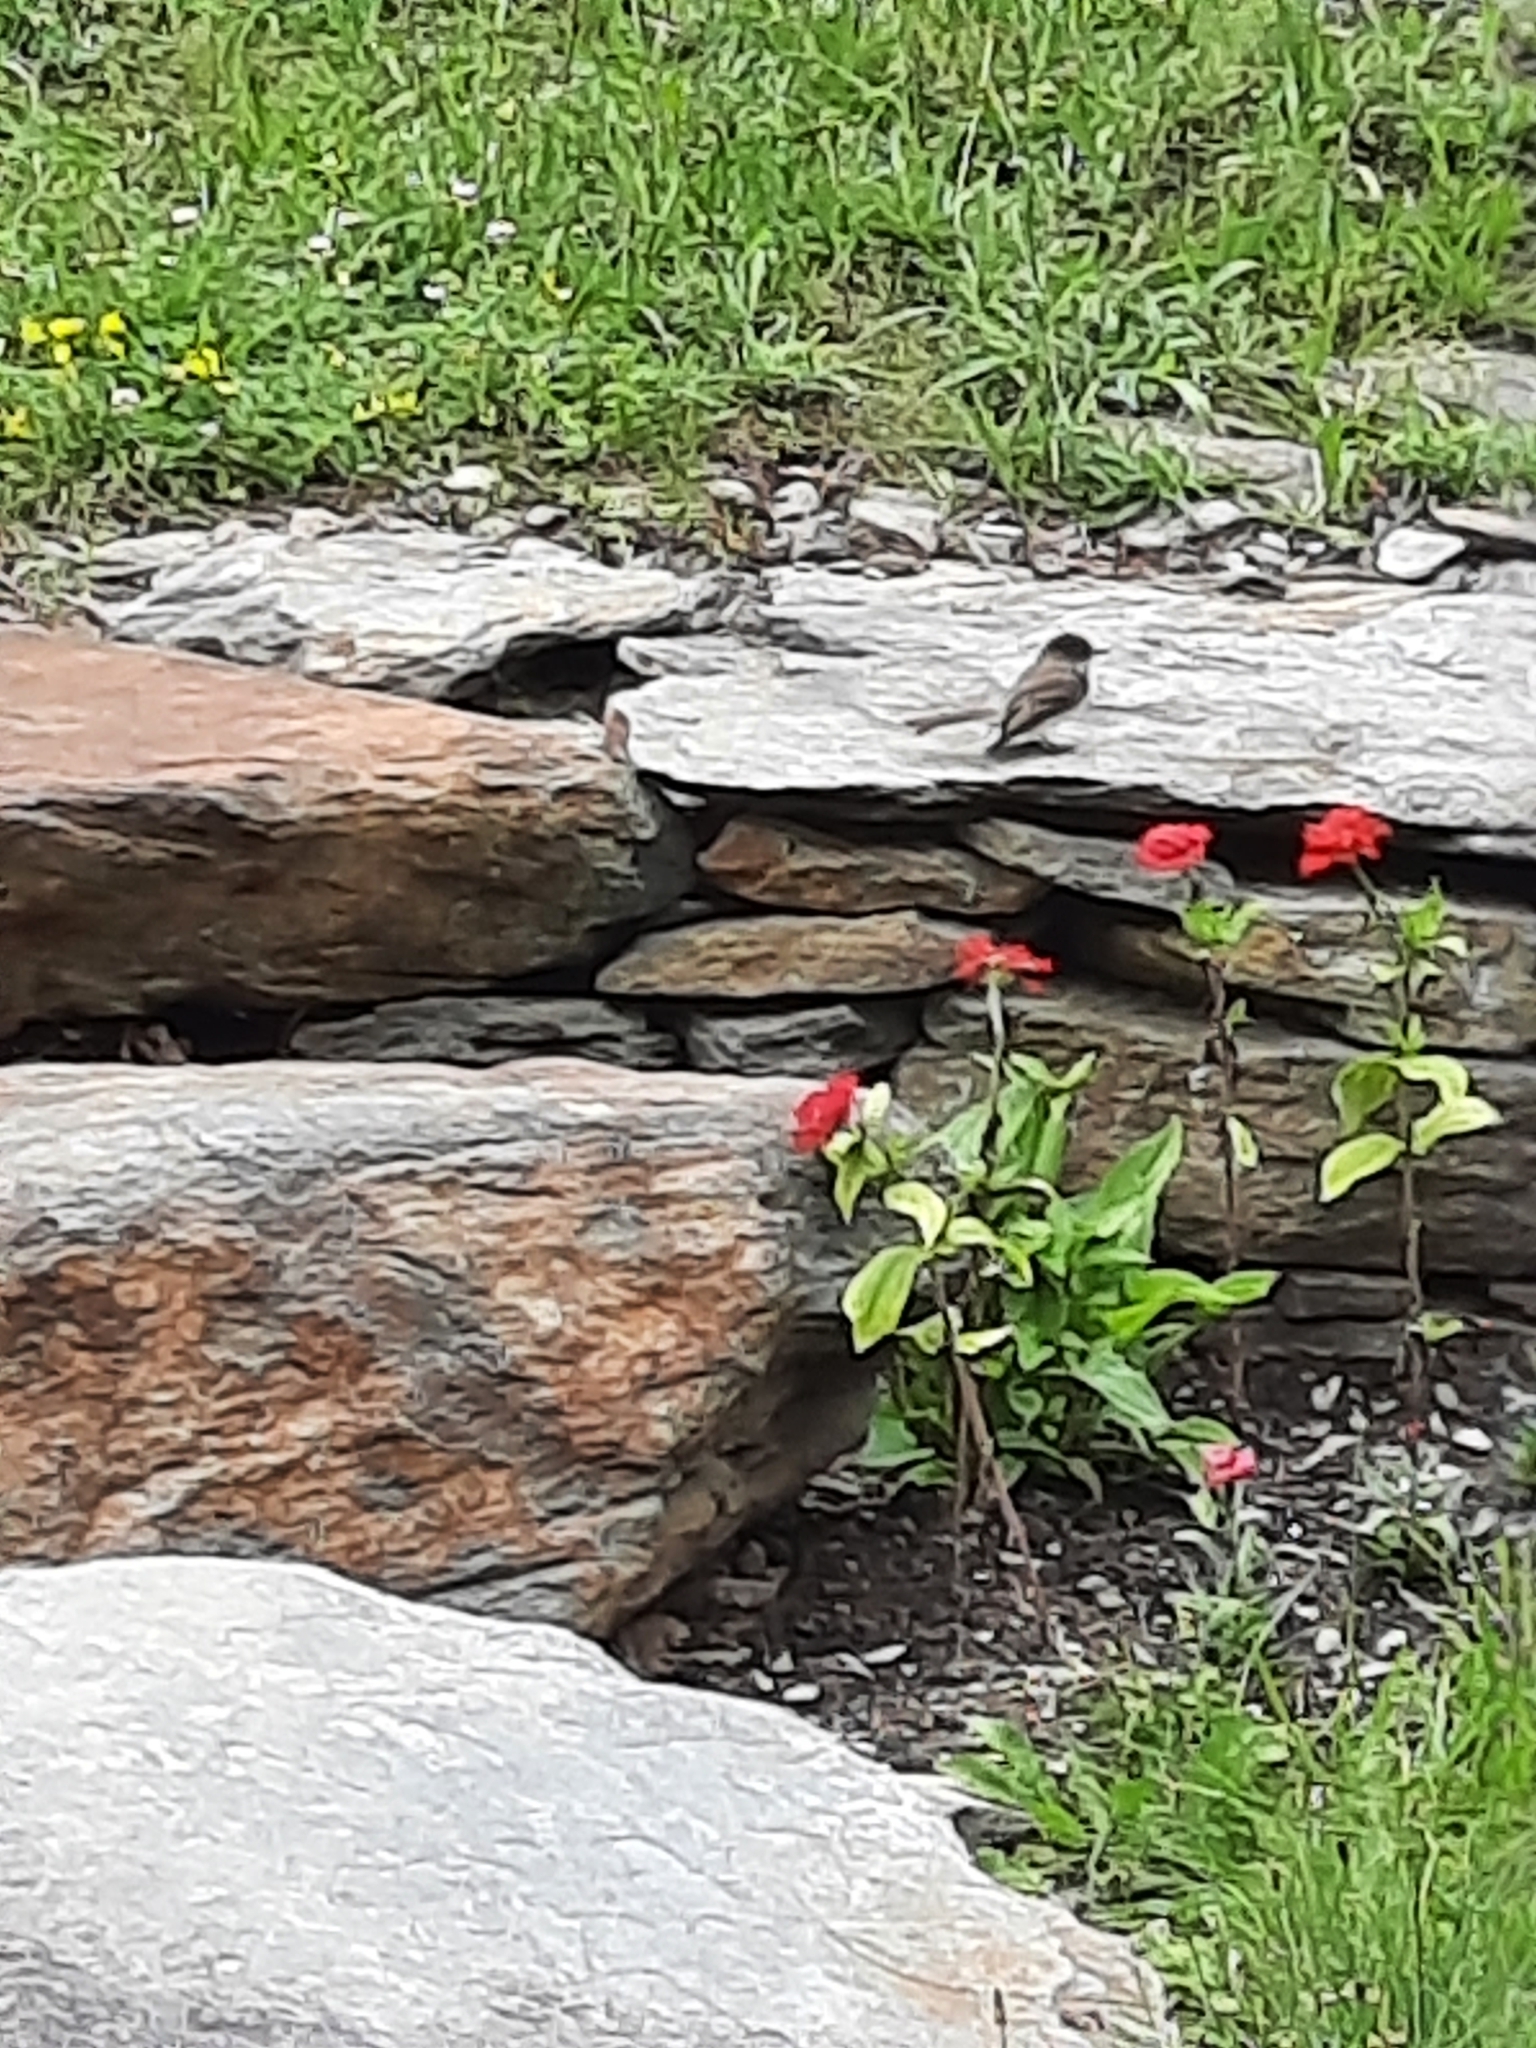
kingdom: Animalia
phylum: Chordata
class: Aves
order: Passeriformes
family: Tyrannidae
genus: Sayornis
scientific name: Sayornis phoebe
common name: Eastern phoebe
